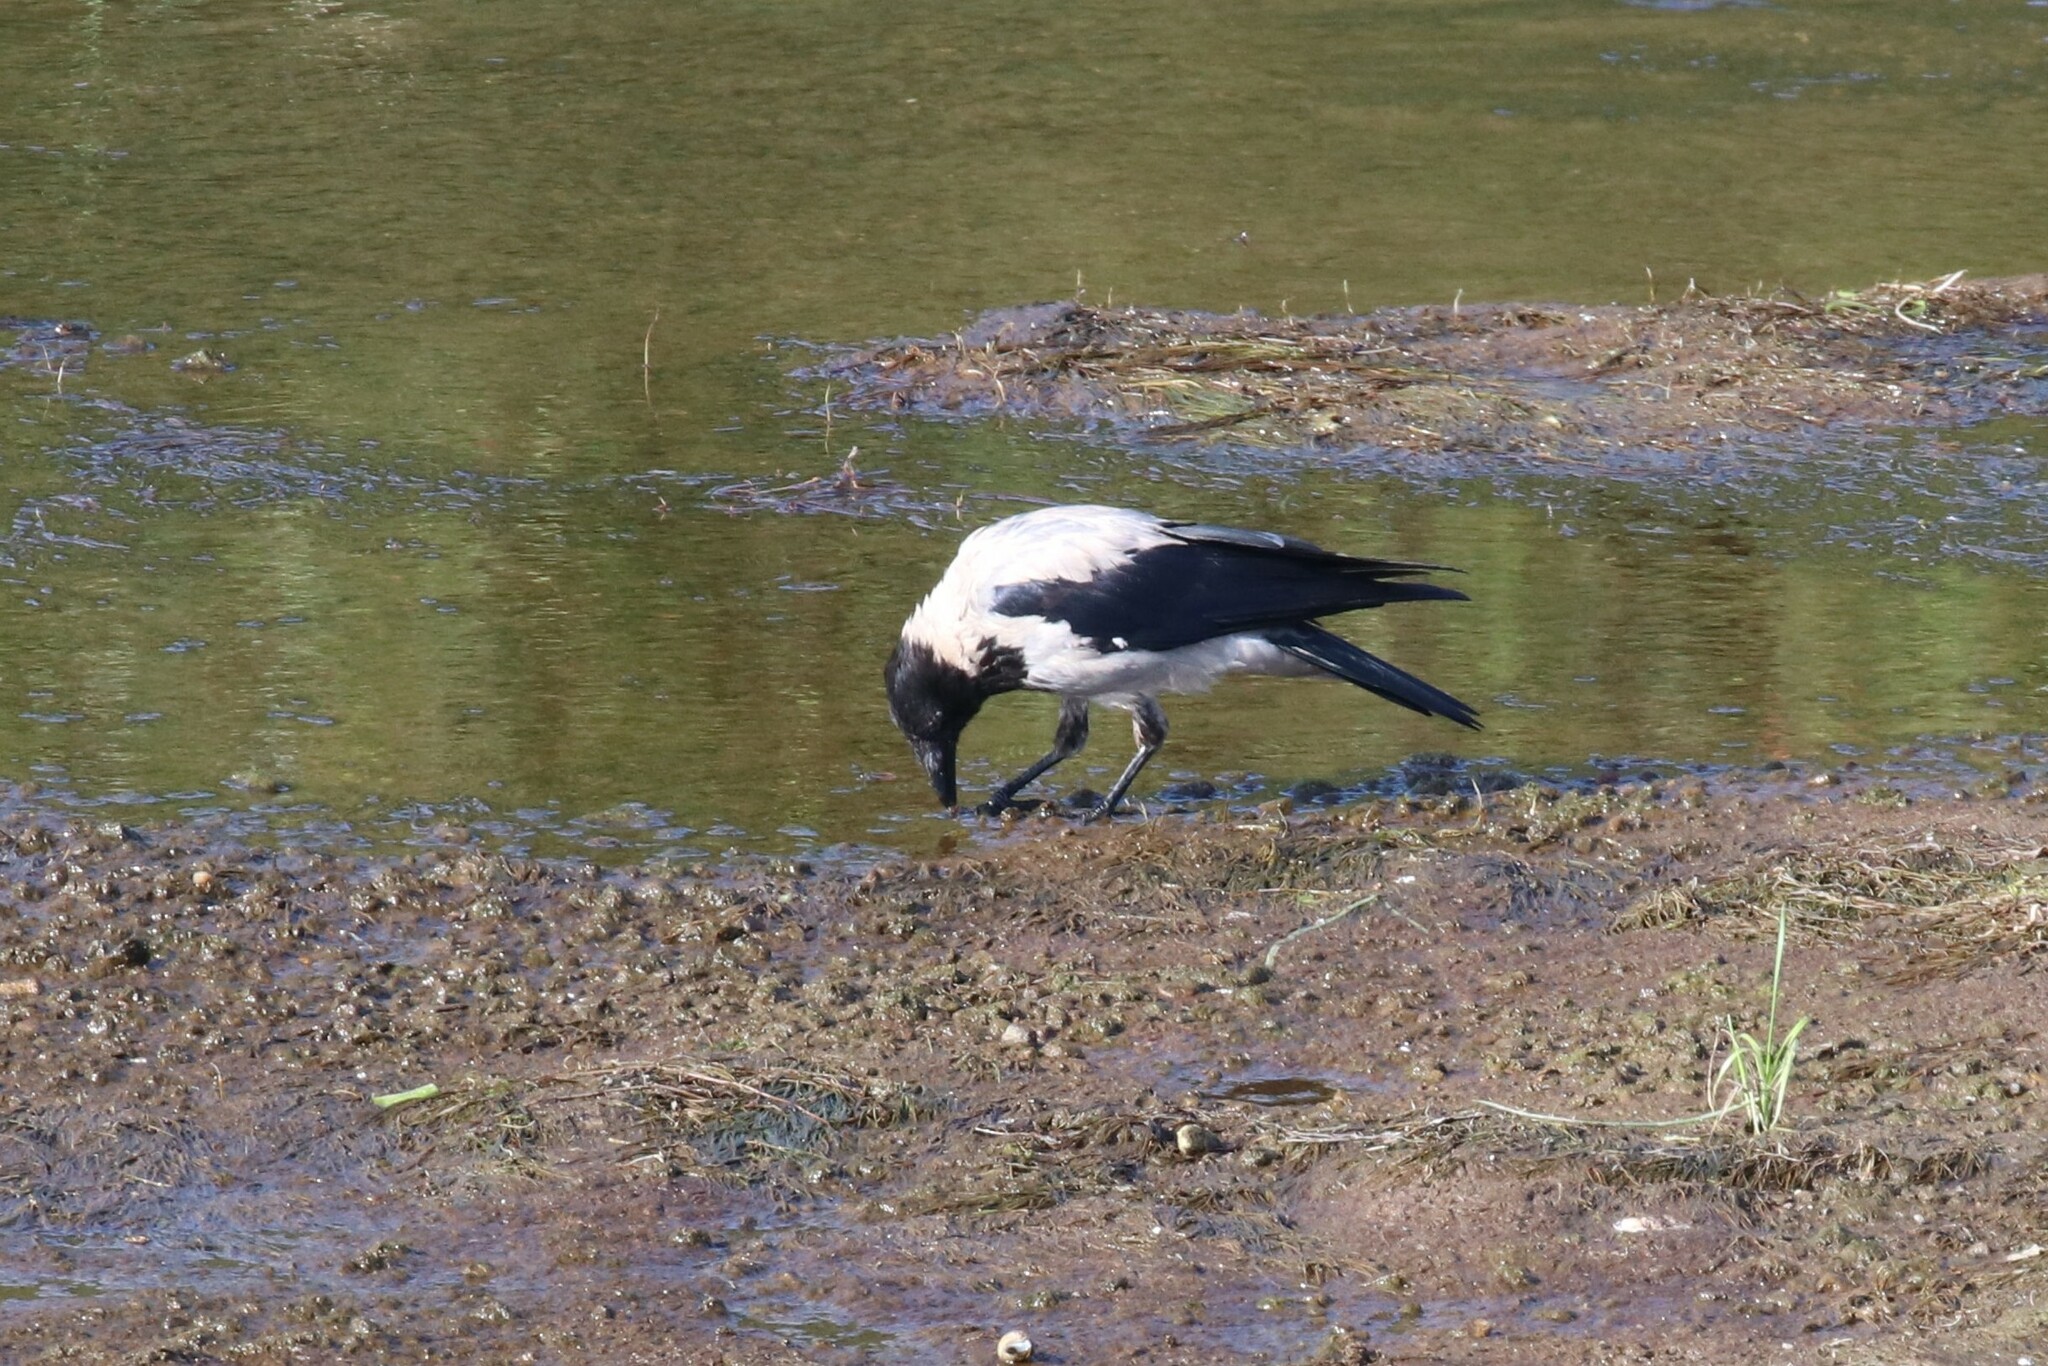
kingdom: Animalia
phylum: Chordata
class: Aves
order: Passeriformes
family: Corvidae
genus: Corvus
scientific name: Corvus cornix
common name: Hooded crow
